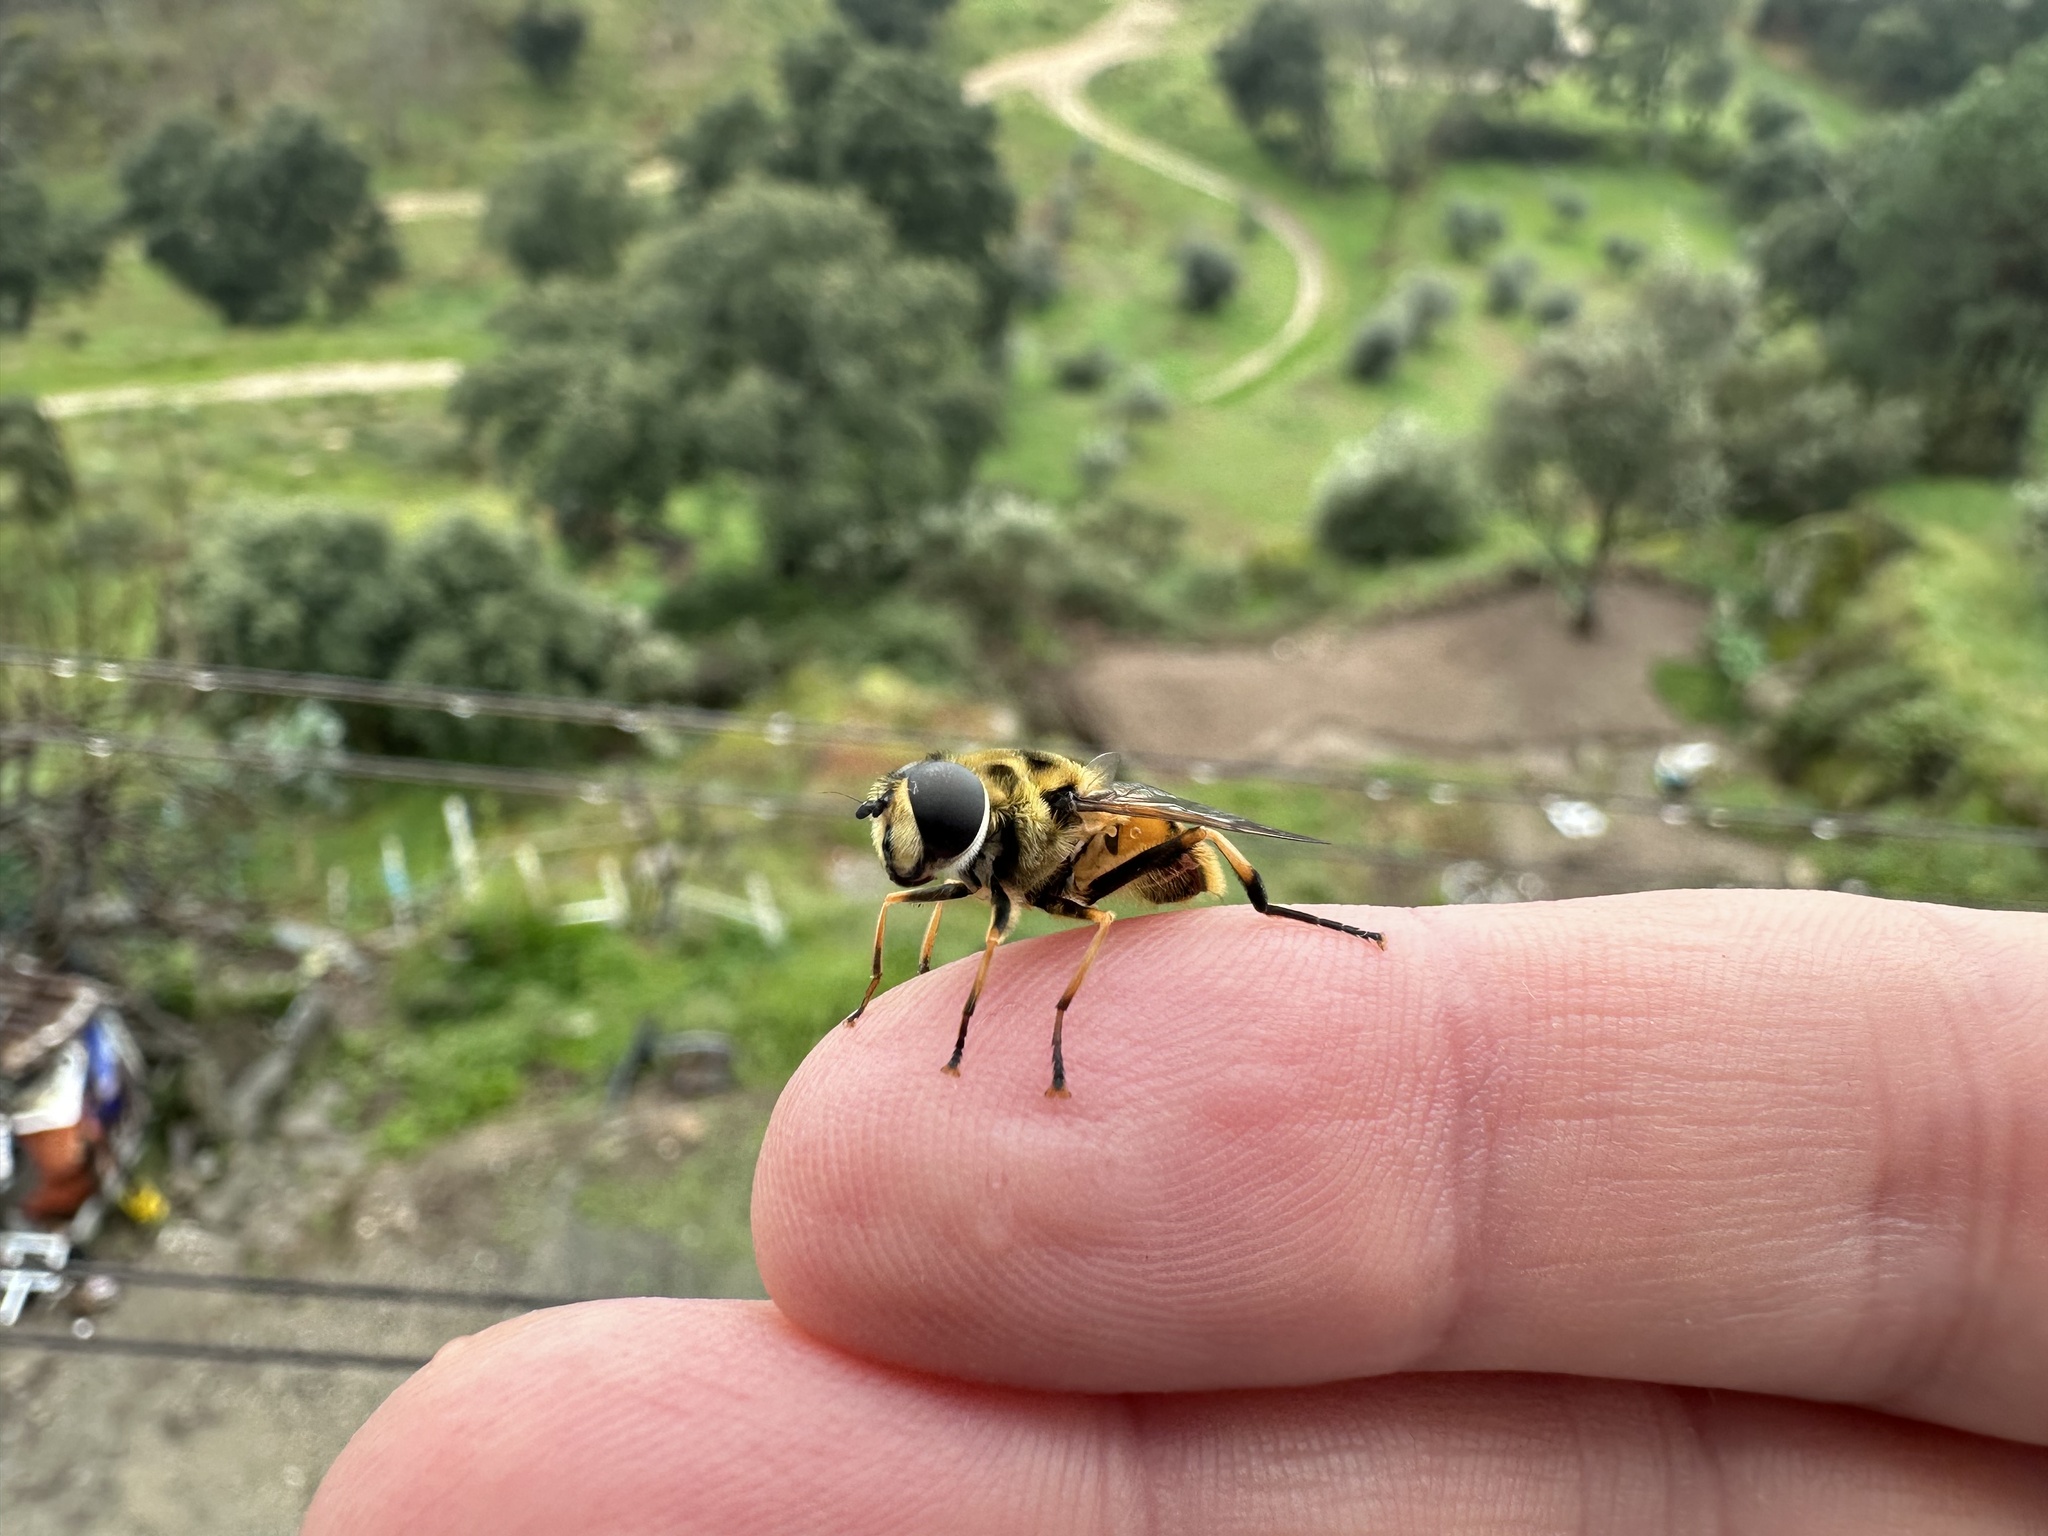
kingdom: Animalia
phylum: Arthropoda
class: Insecta
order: Diptera
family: Syrphidae
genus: Myathropa
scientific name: Myathropa florea
